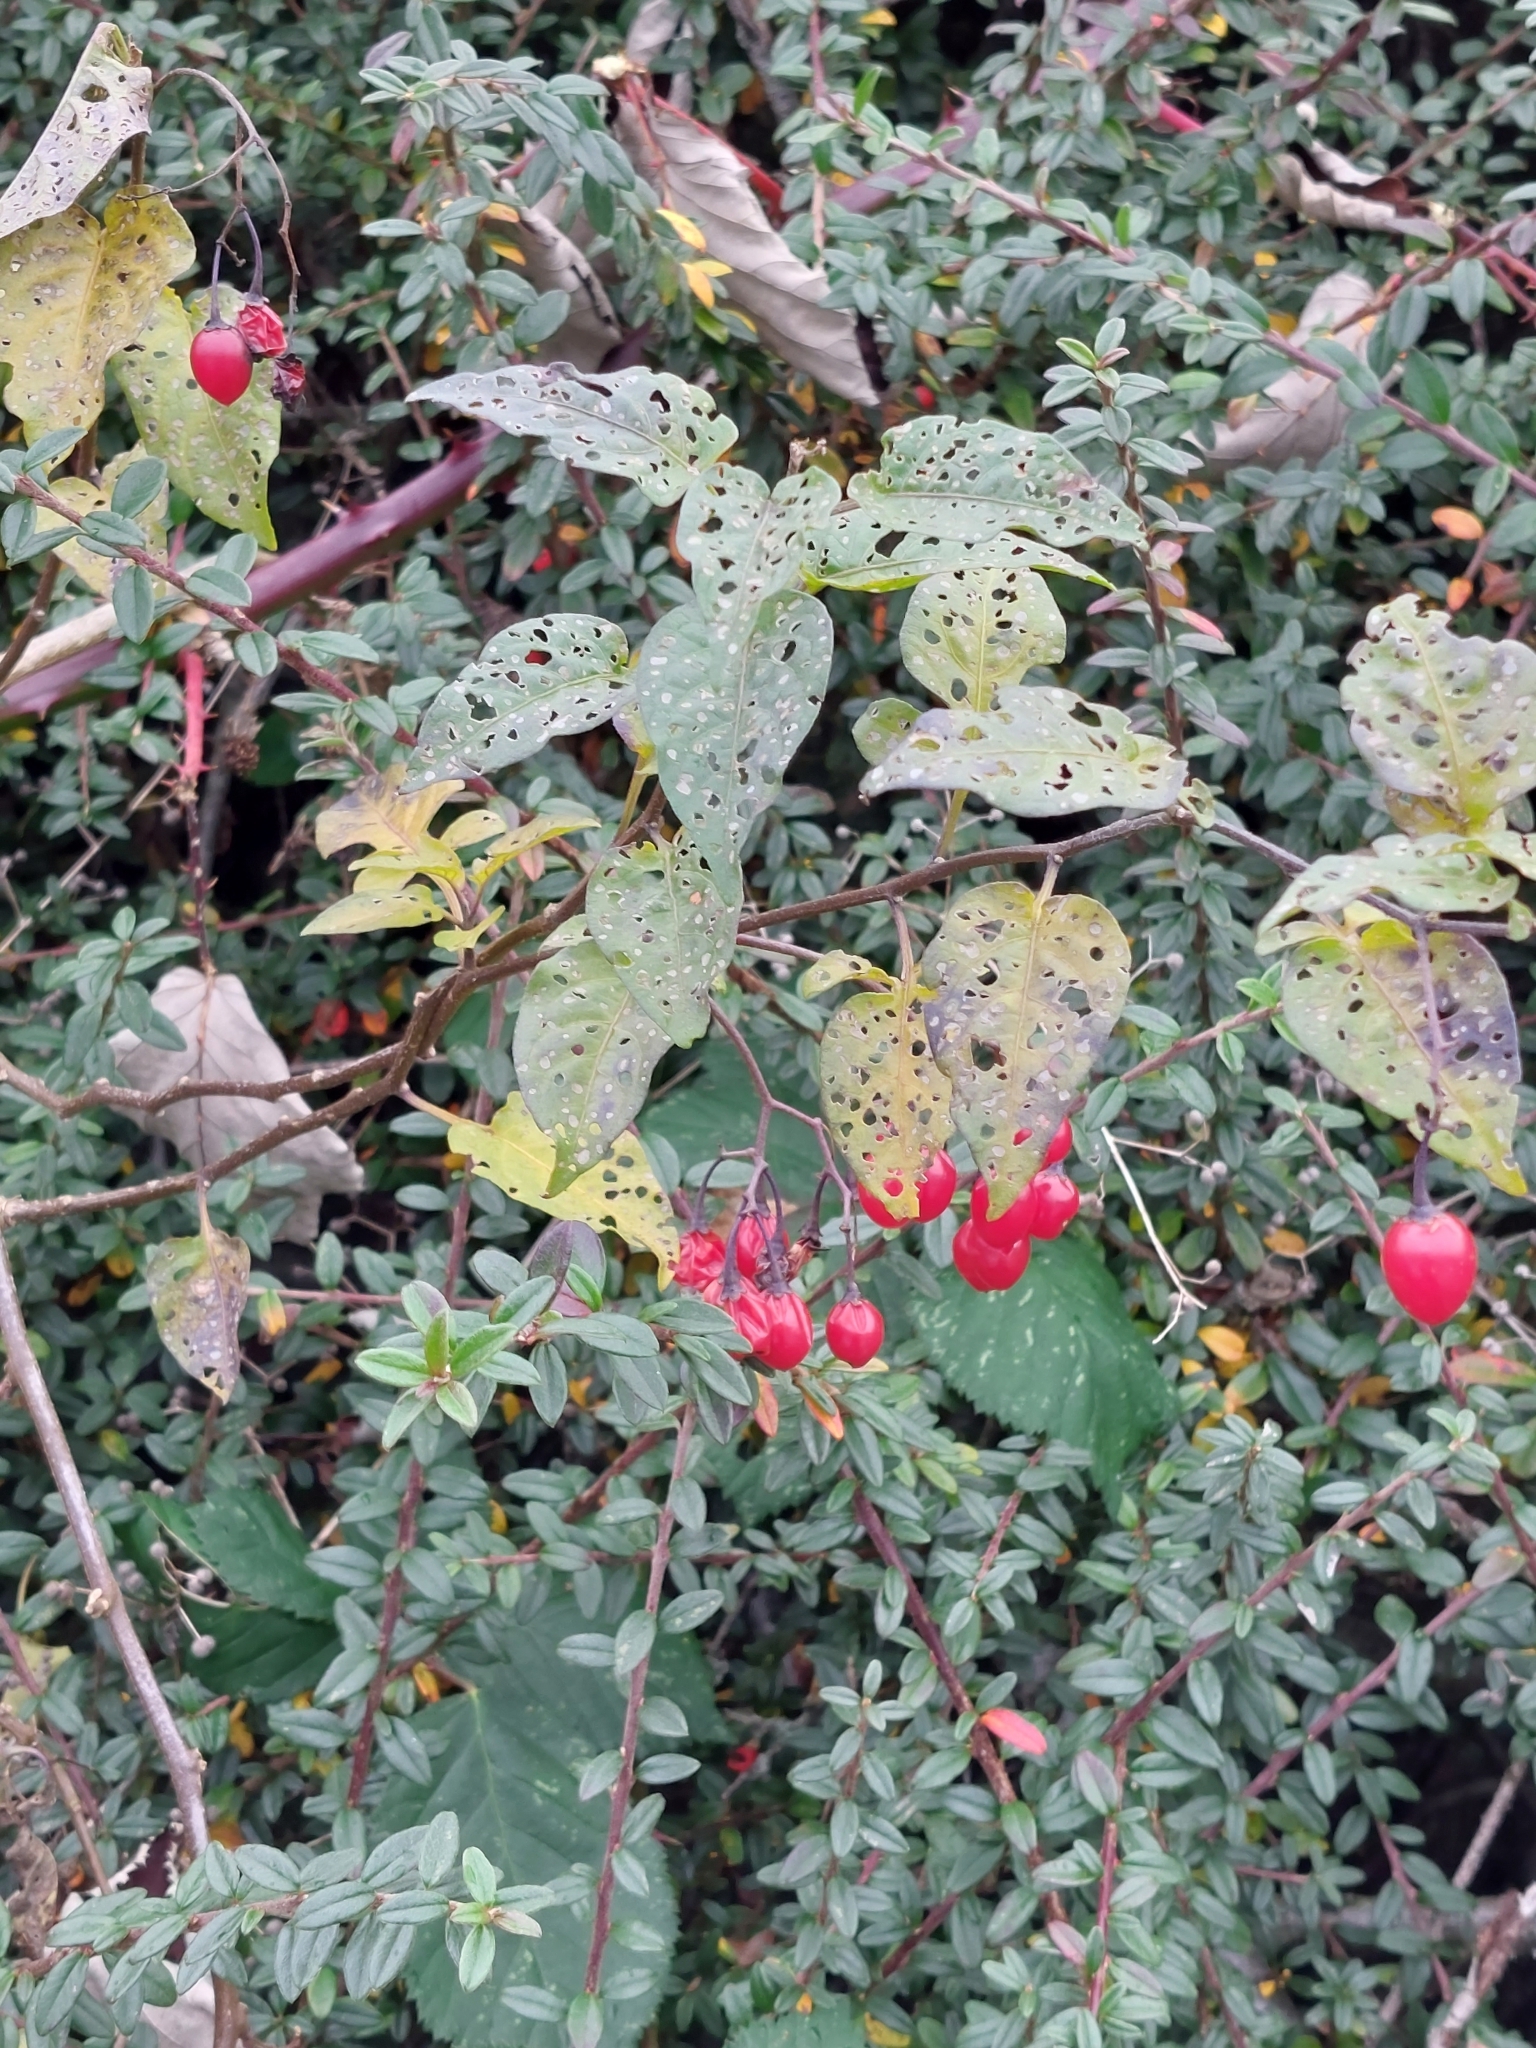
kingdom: Plantae
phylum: Tracheophyta
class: Magnoliopsida
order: Solanales
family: Solanaceae
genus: Solanum
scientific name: Solanum dulcamara
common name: Climbing nightshade
